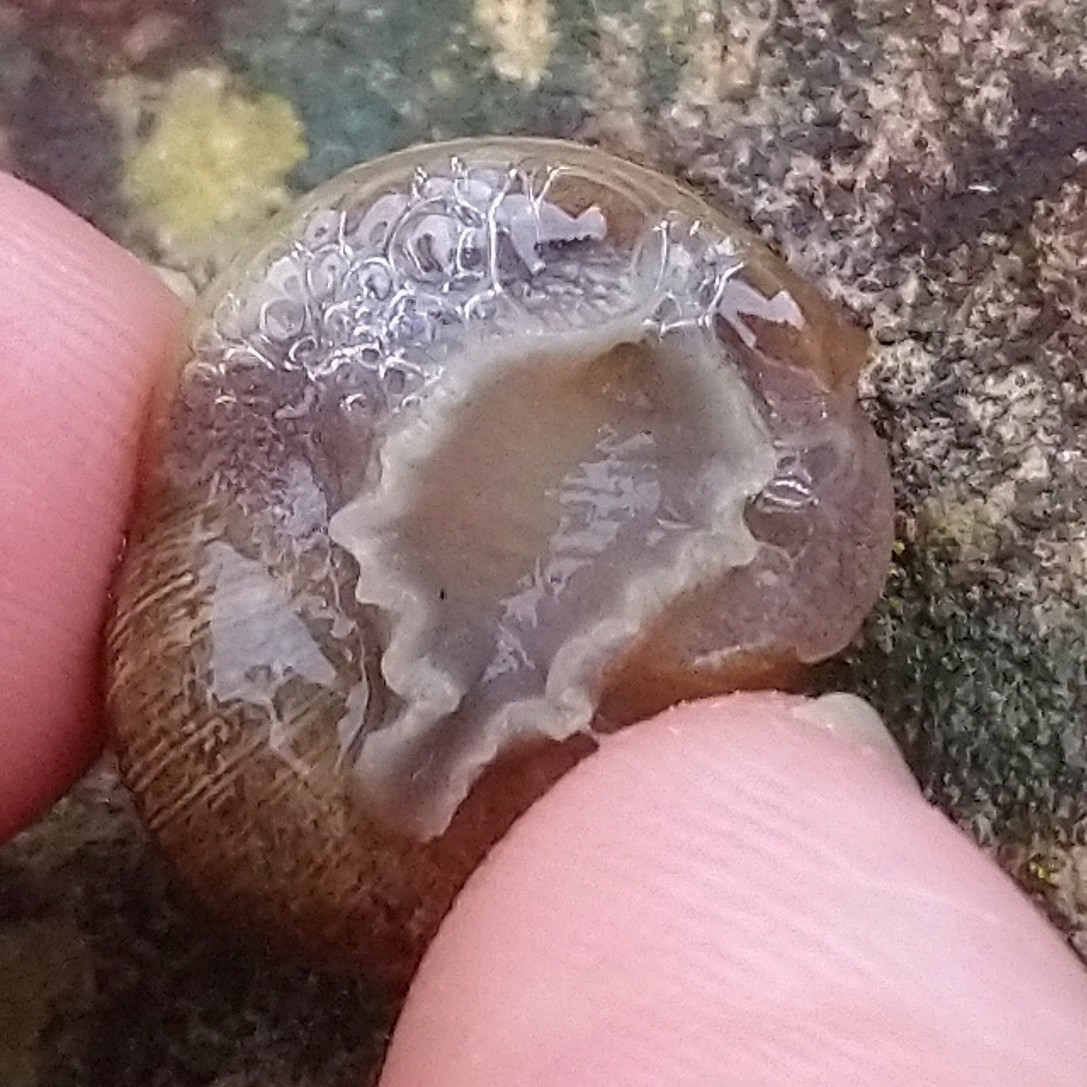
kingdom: Animalia
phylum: Mollusca
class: Gastropoda
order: Stylommatophora
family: Helicidae
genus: Cornu
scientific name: Cornu aspersum
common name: Brown garden snail
